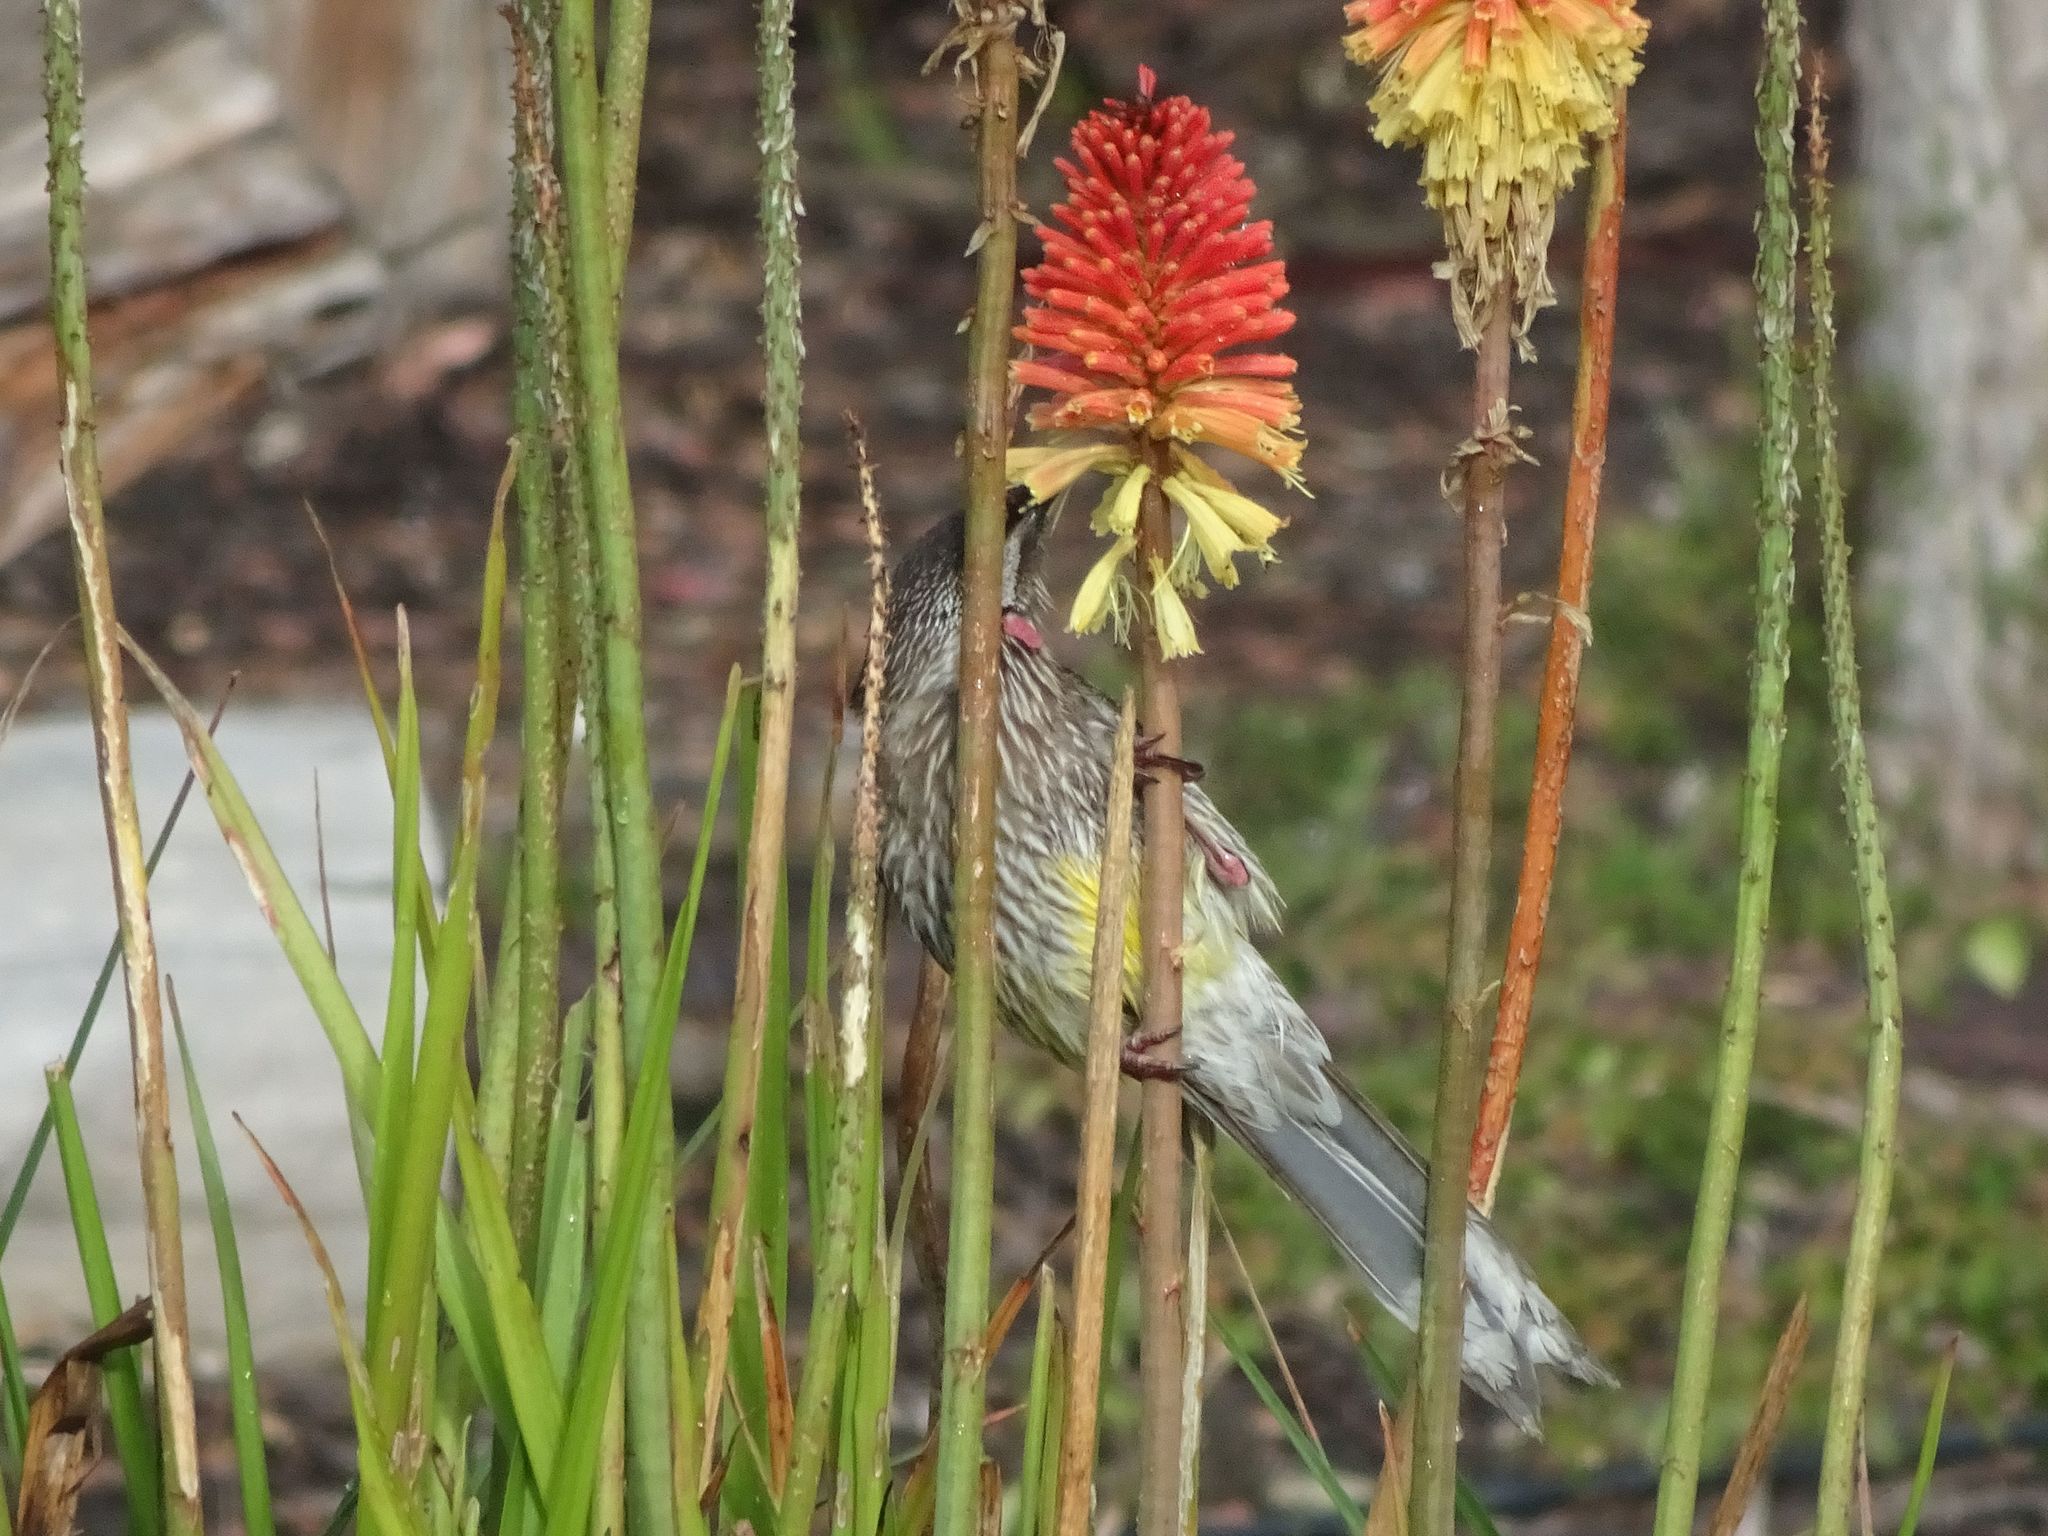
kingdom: Animalia
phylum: Chordata
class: Aves
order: Passeriformes
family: Meliphagidae
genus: Anthochaera
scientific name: Anthochaera carunculata
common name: Red wattlebird
